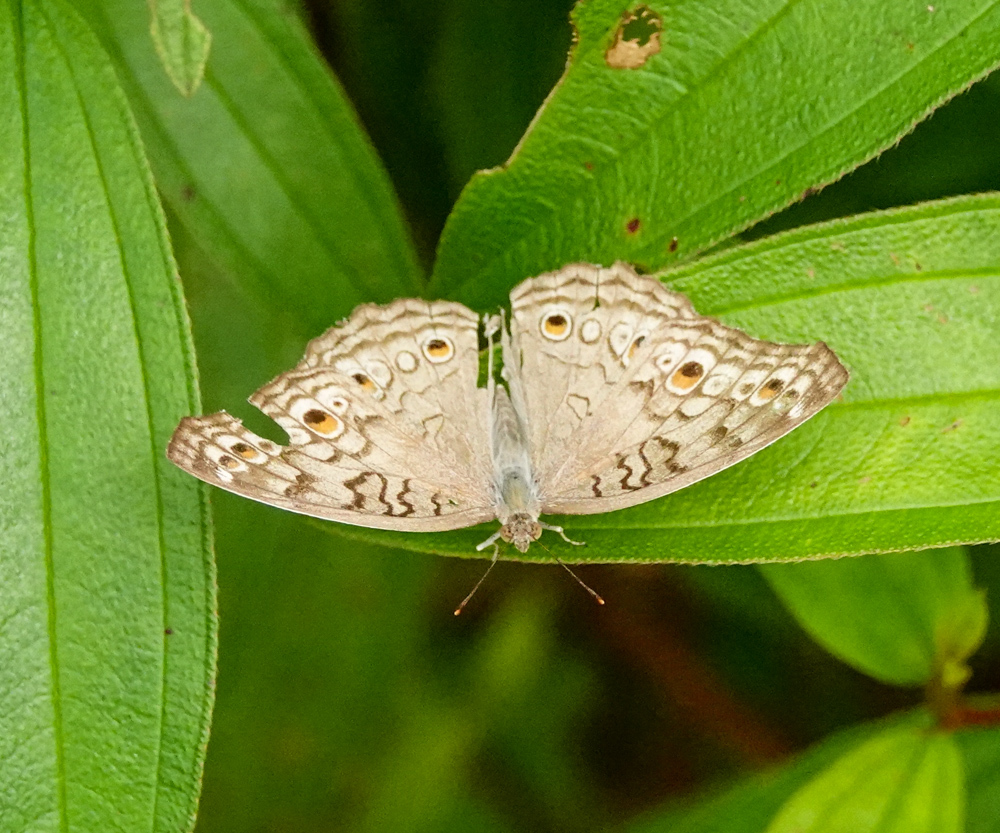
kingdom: Animalia
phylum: Arthropoda
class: Insecta
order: Lepidoptera
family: Nymphalidae
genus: Junonia
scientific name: Junonia atlites
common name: Grey pansy
